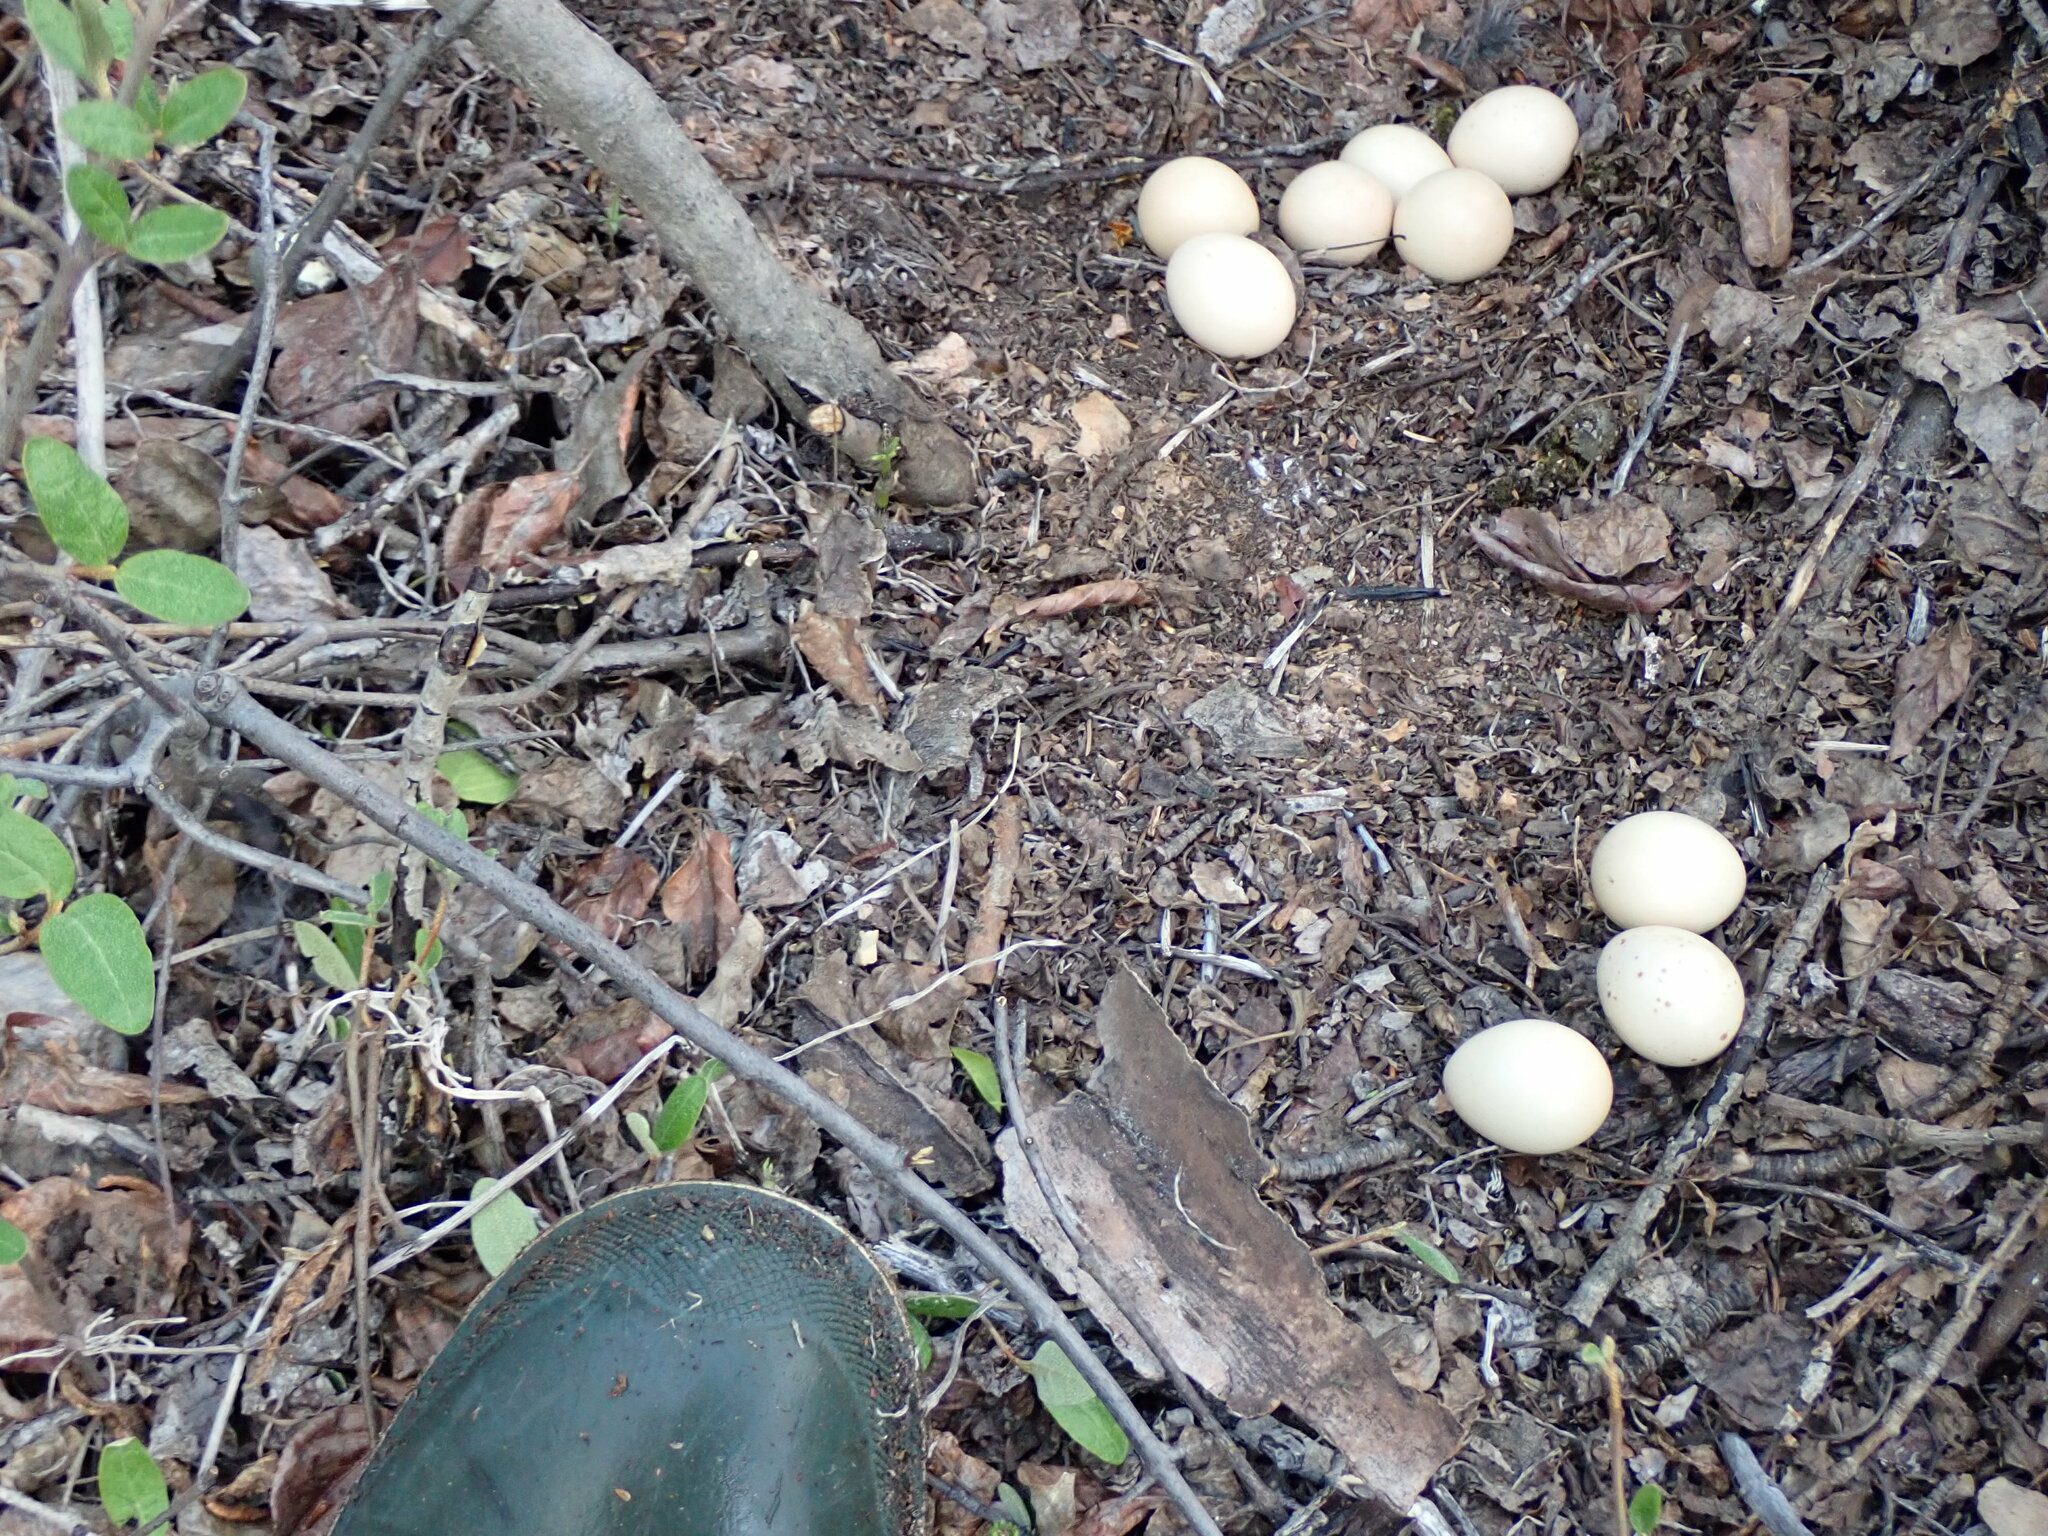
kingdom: Animalia
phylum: Chordata
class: Aves
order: Galliformes
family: Phasianidae
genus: Bonasa
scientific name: Bonasa umbellus
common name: Ruffed grouse
